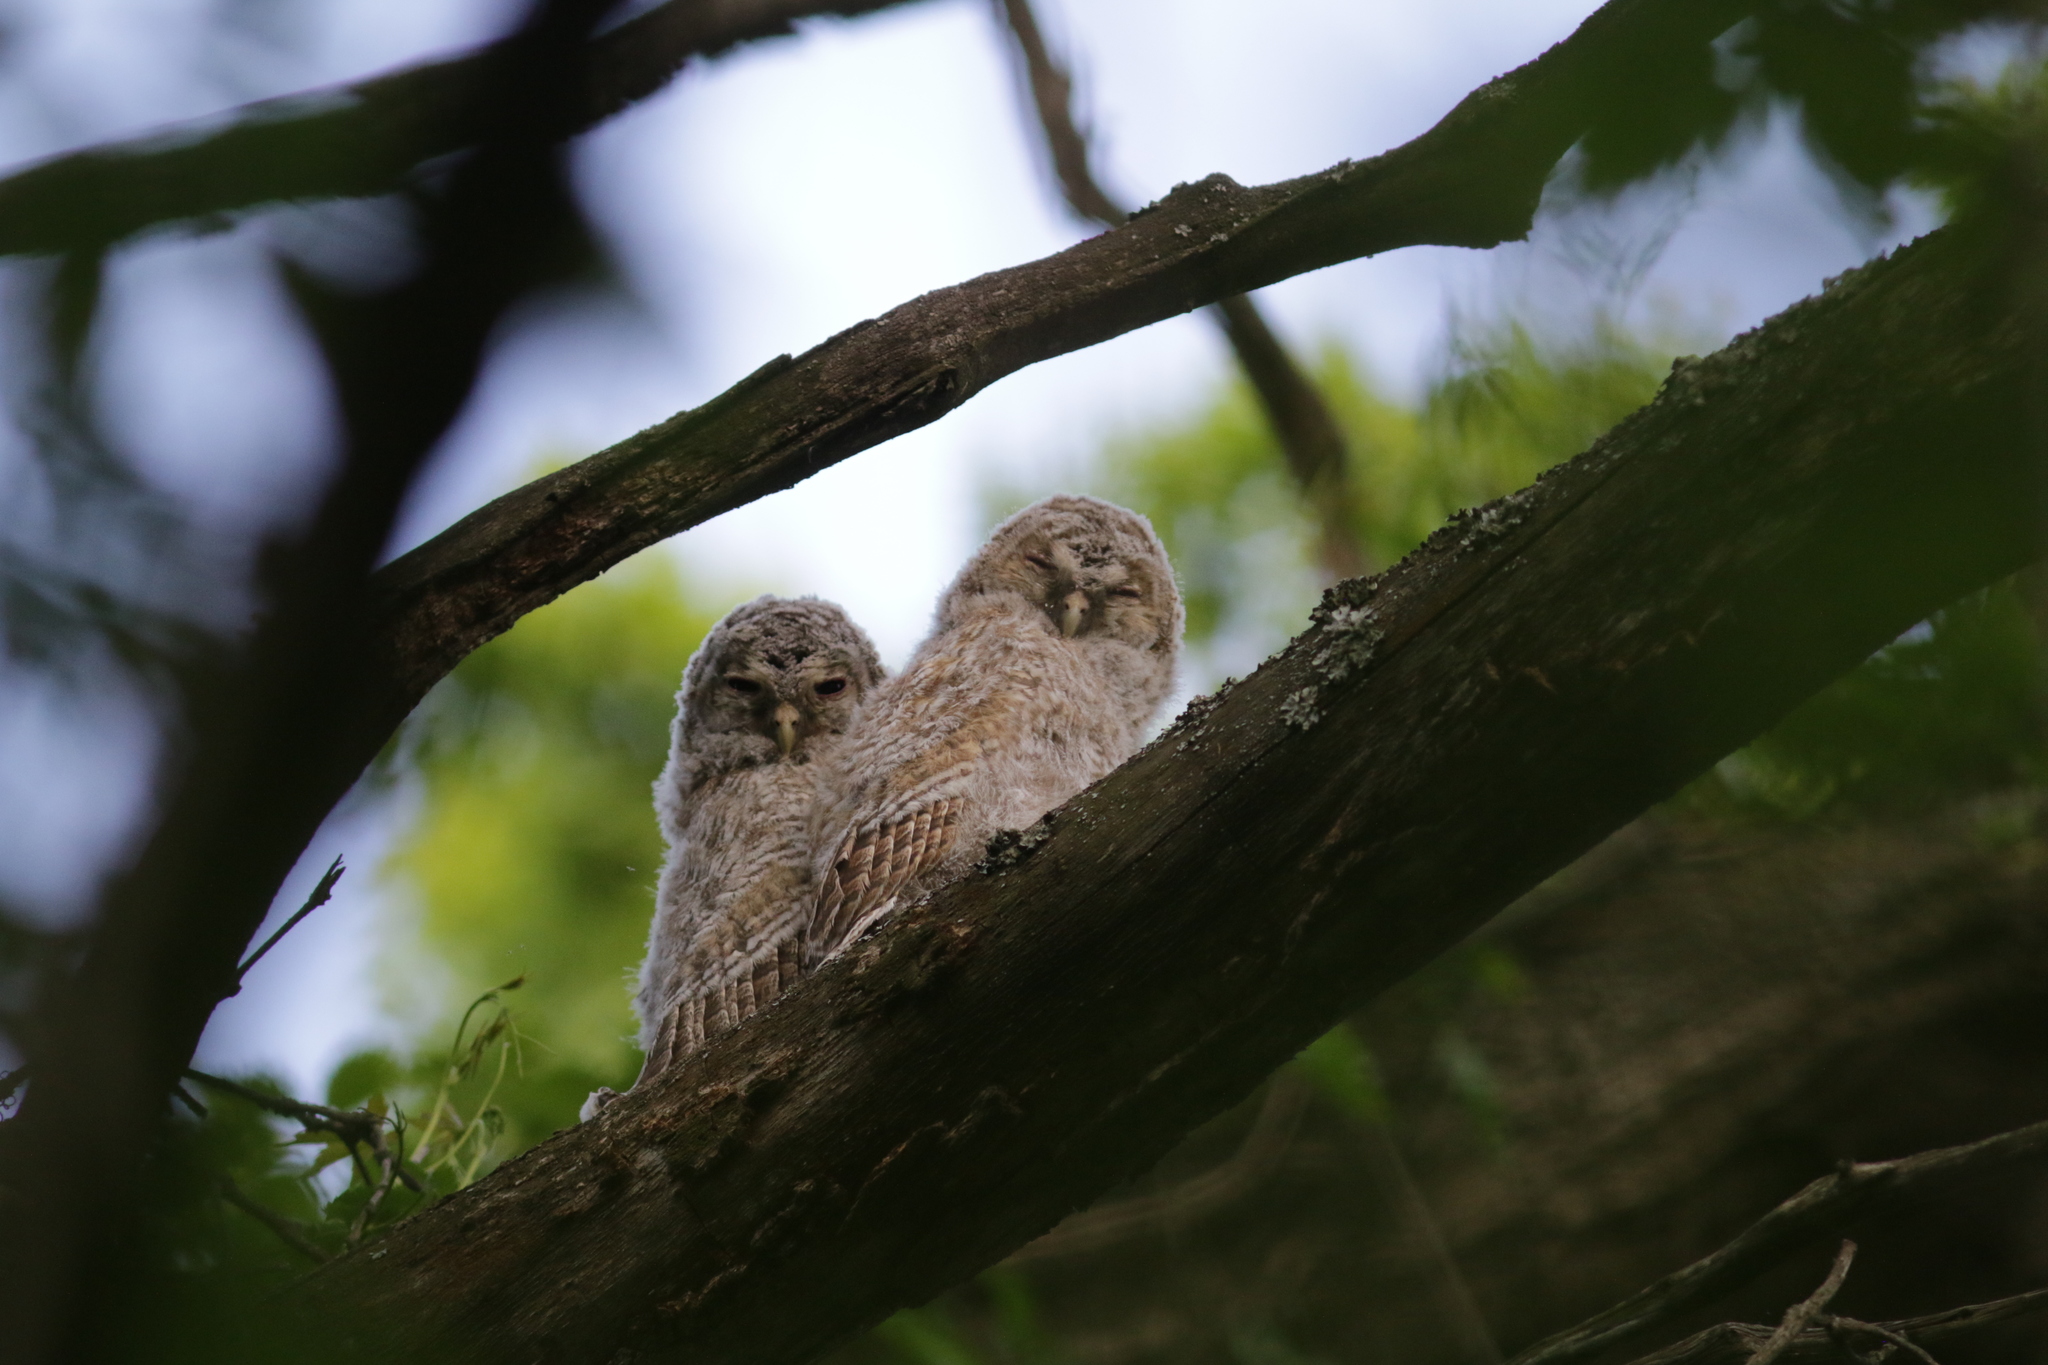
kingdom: Animalia
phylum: Chordata
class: Aves
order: Strigiformes
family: Strigidae
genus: Strix
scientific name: Strix aluco
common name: Tawny owl
